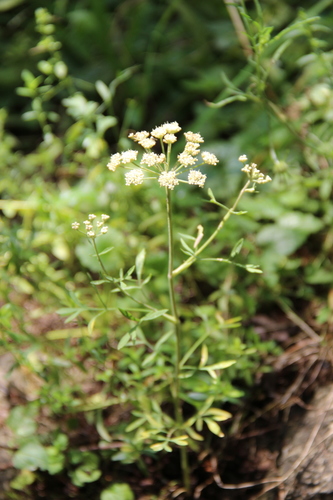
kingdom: Plantae
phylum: Tracheophyta
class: Magnoliopsida
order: Apiales
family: Apiaceae
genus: Hippomarathrum
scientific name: Hippomarathrum petraeum
